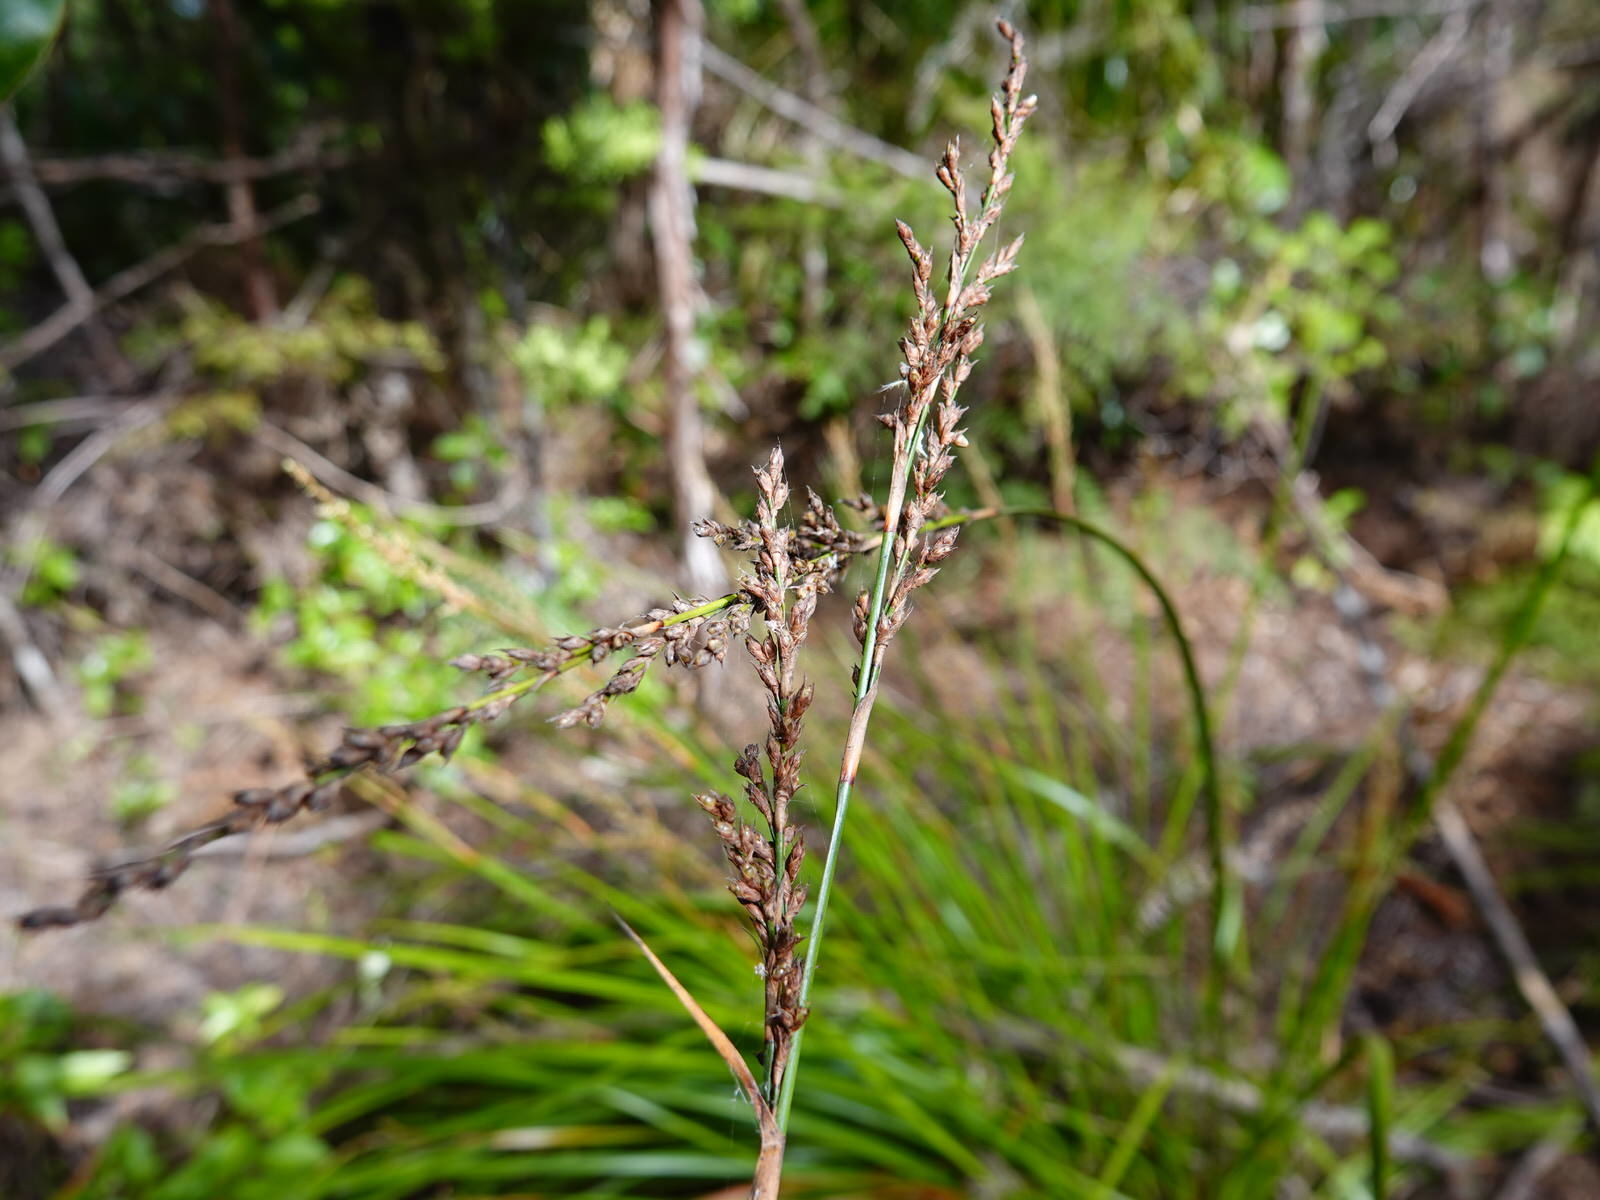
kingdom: Plantae
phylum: Tracheophyta
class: Liliopsida
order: Poales
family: Cyperaceae
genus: Lepidosperma
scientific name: Lepidosperma laterale
